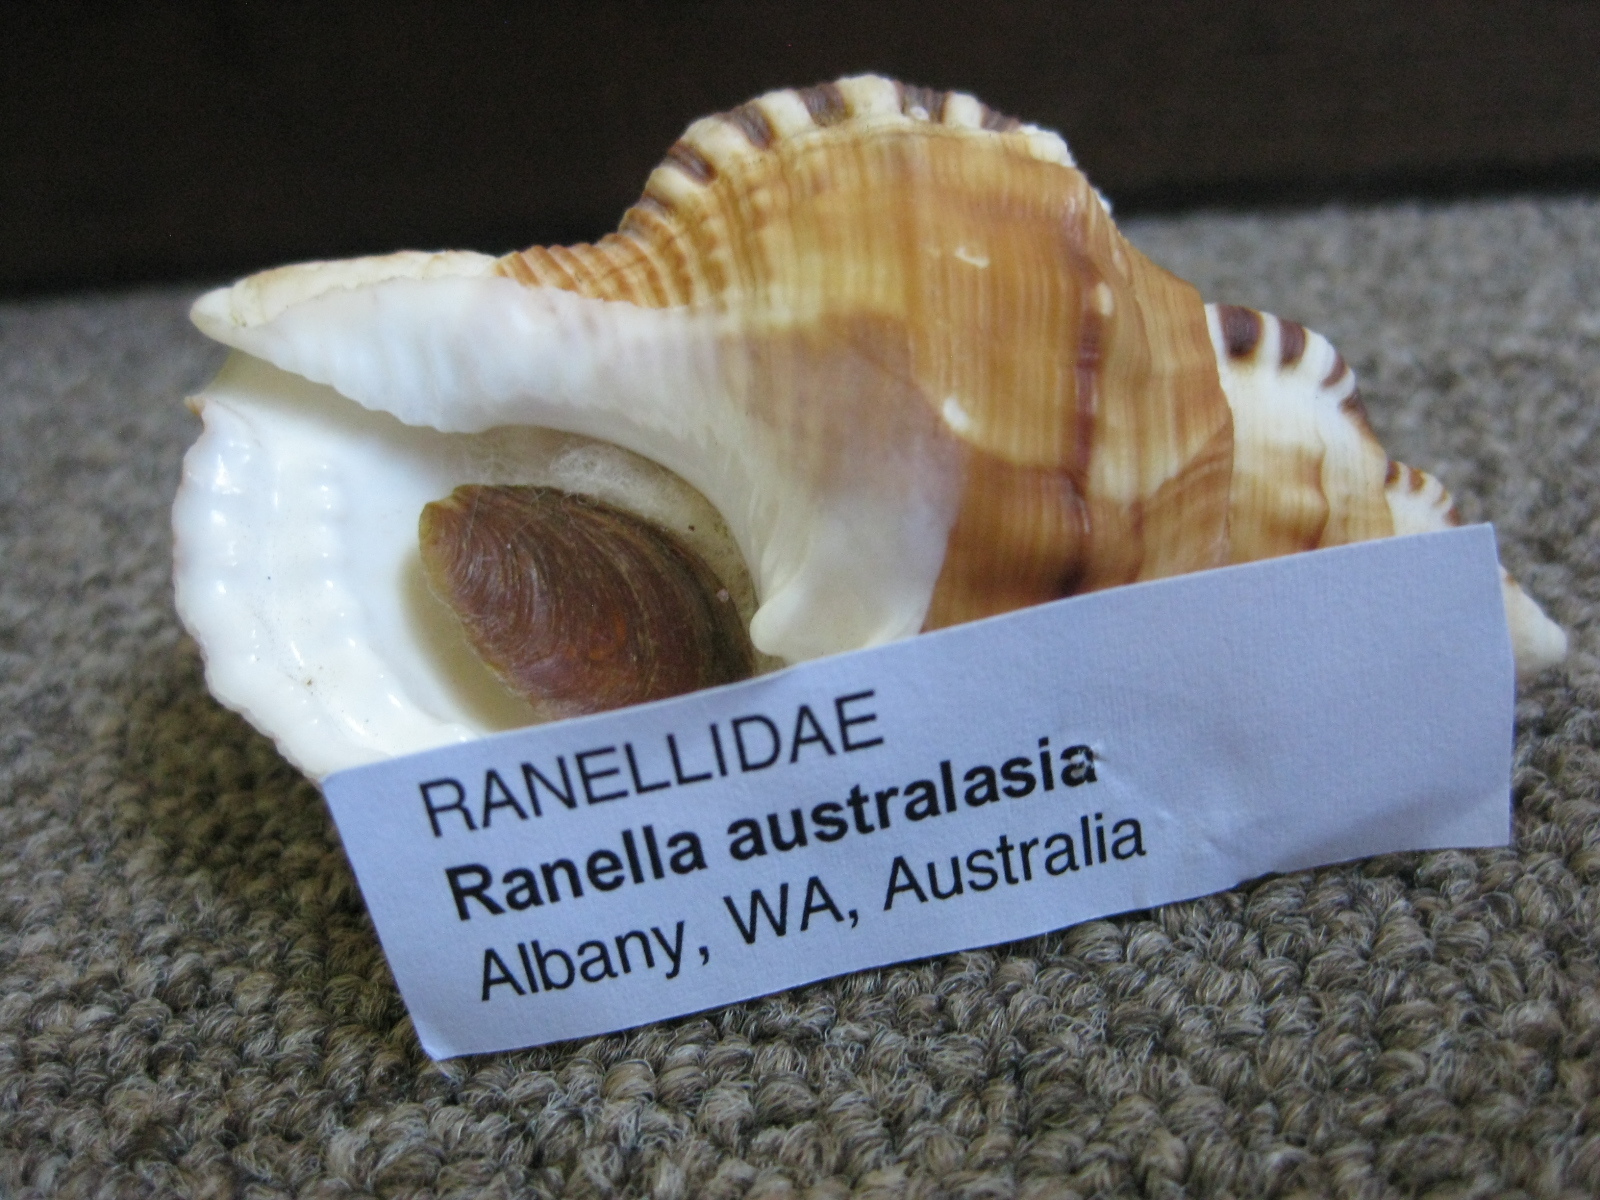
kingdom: Animalia
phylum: Mollusca
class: Gastropoda
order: Littorinimorpha
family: Ranellidae
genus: Ranella
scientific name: Ranella australasia
